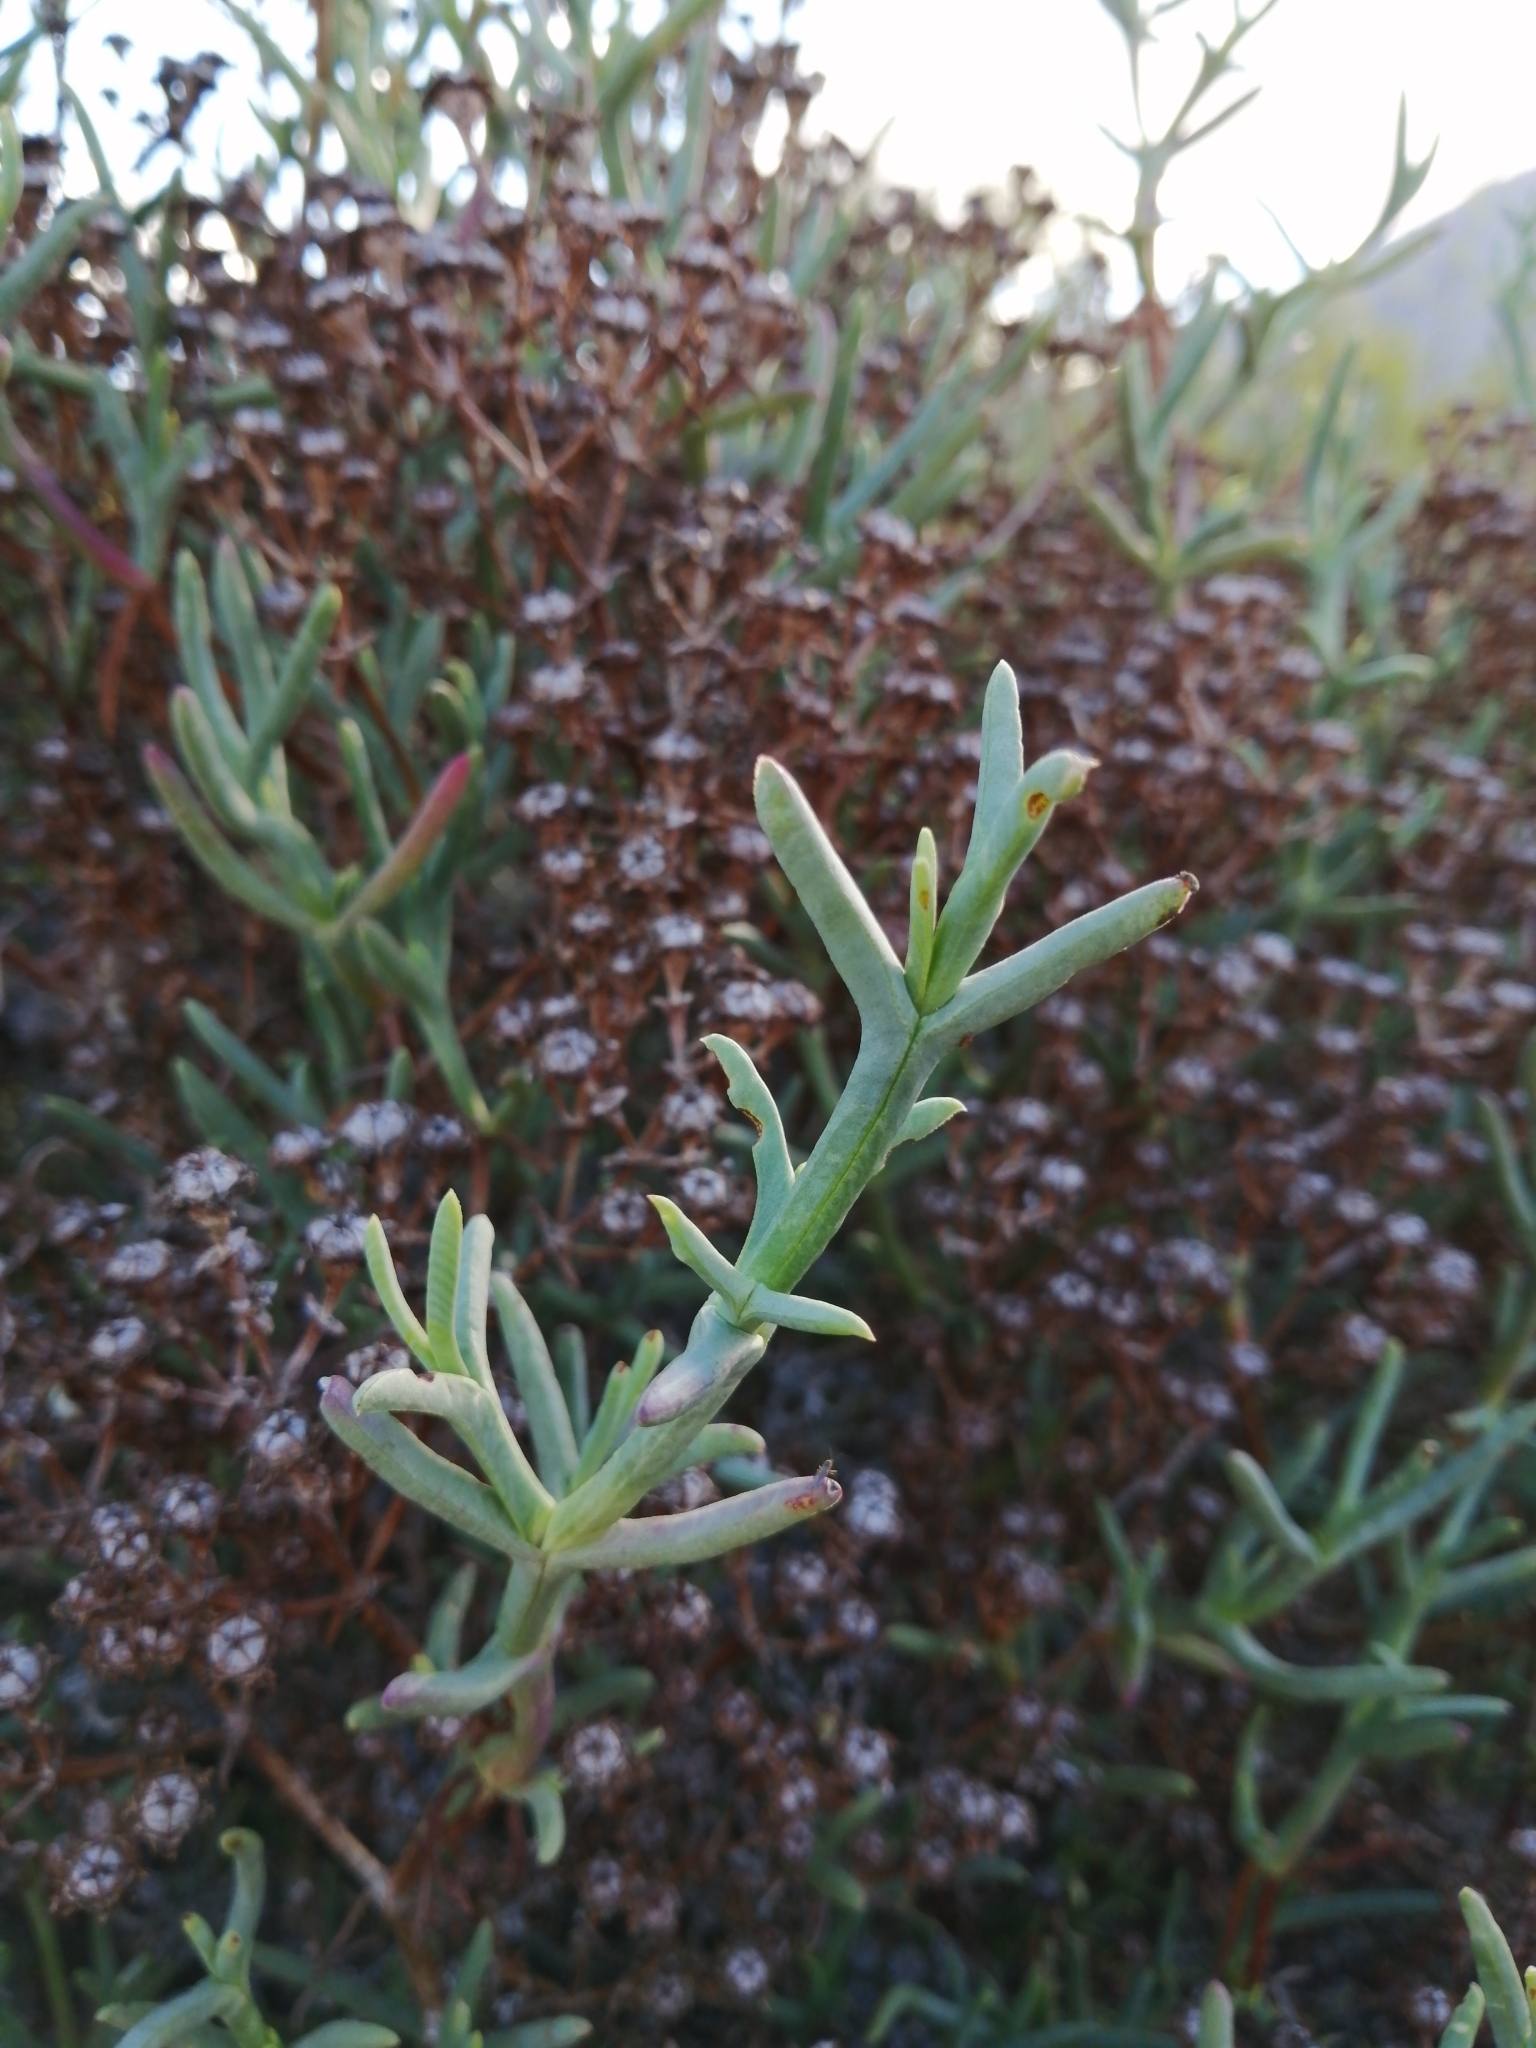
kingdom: Plantae
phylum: Tracheophyta
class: Magnoliopsida
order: Caryophyllales
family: Aizoaceae
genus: Ruschia
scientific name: Ruschia multiflora
